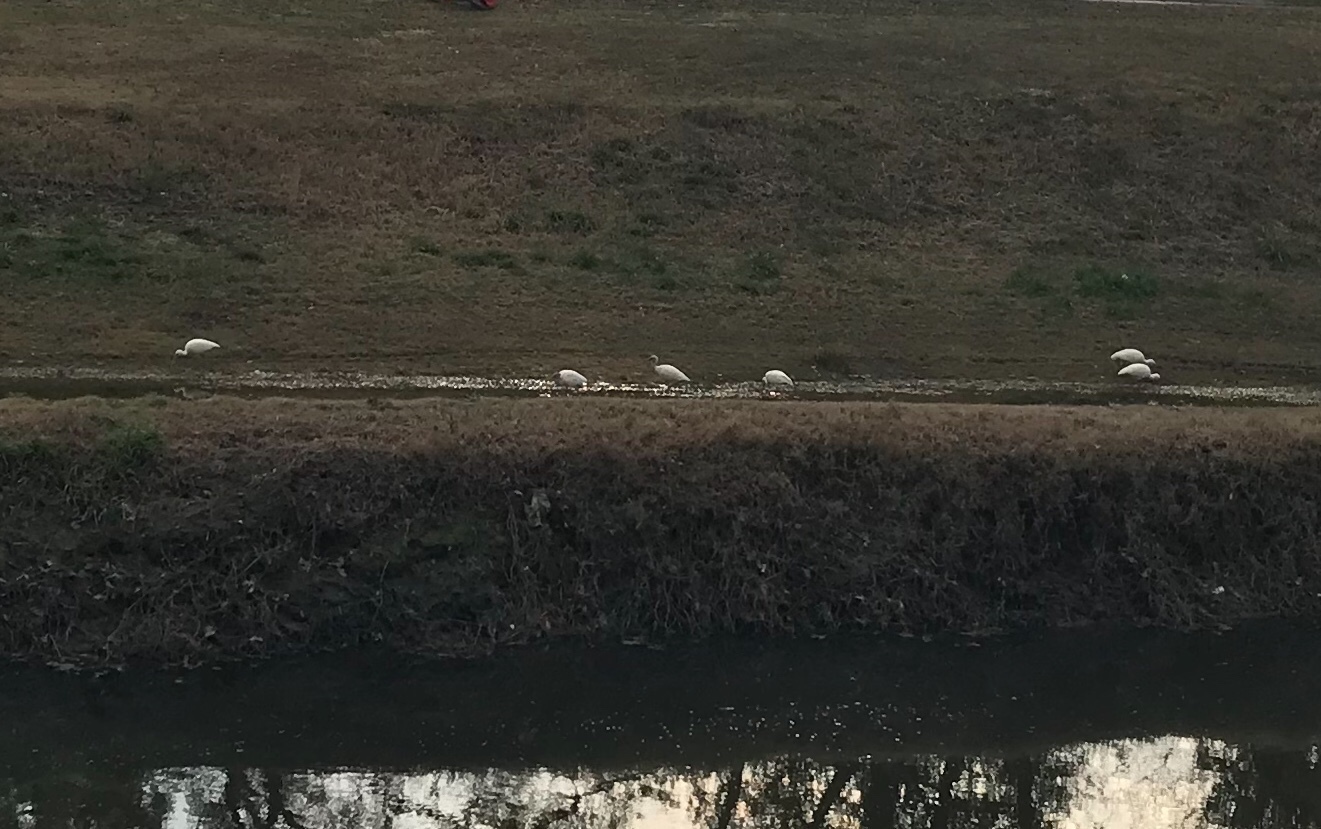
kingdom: Animalia
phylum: Chordata
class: Aves
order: Pelecaniformes
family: Threskiornithidae
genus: Eudocimus
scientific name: Eudocimus albus
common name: White ibis
